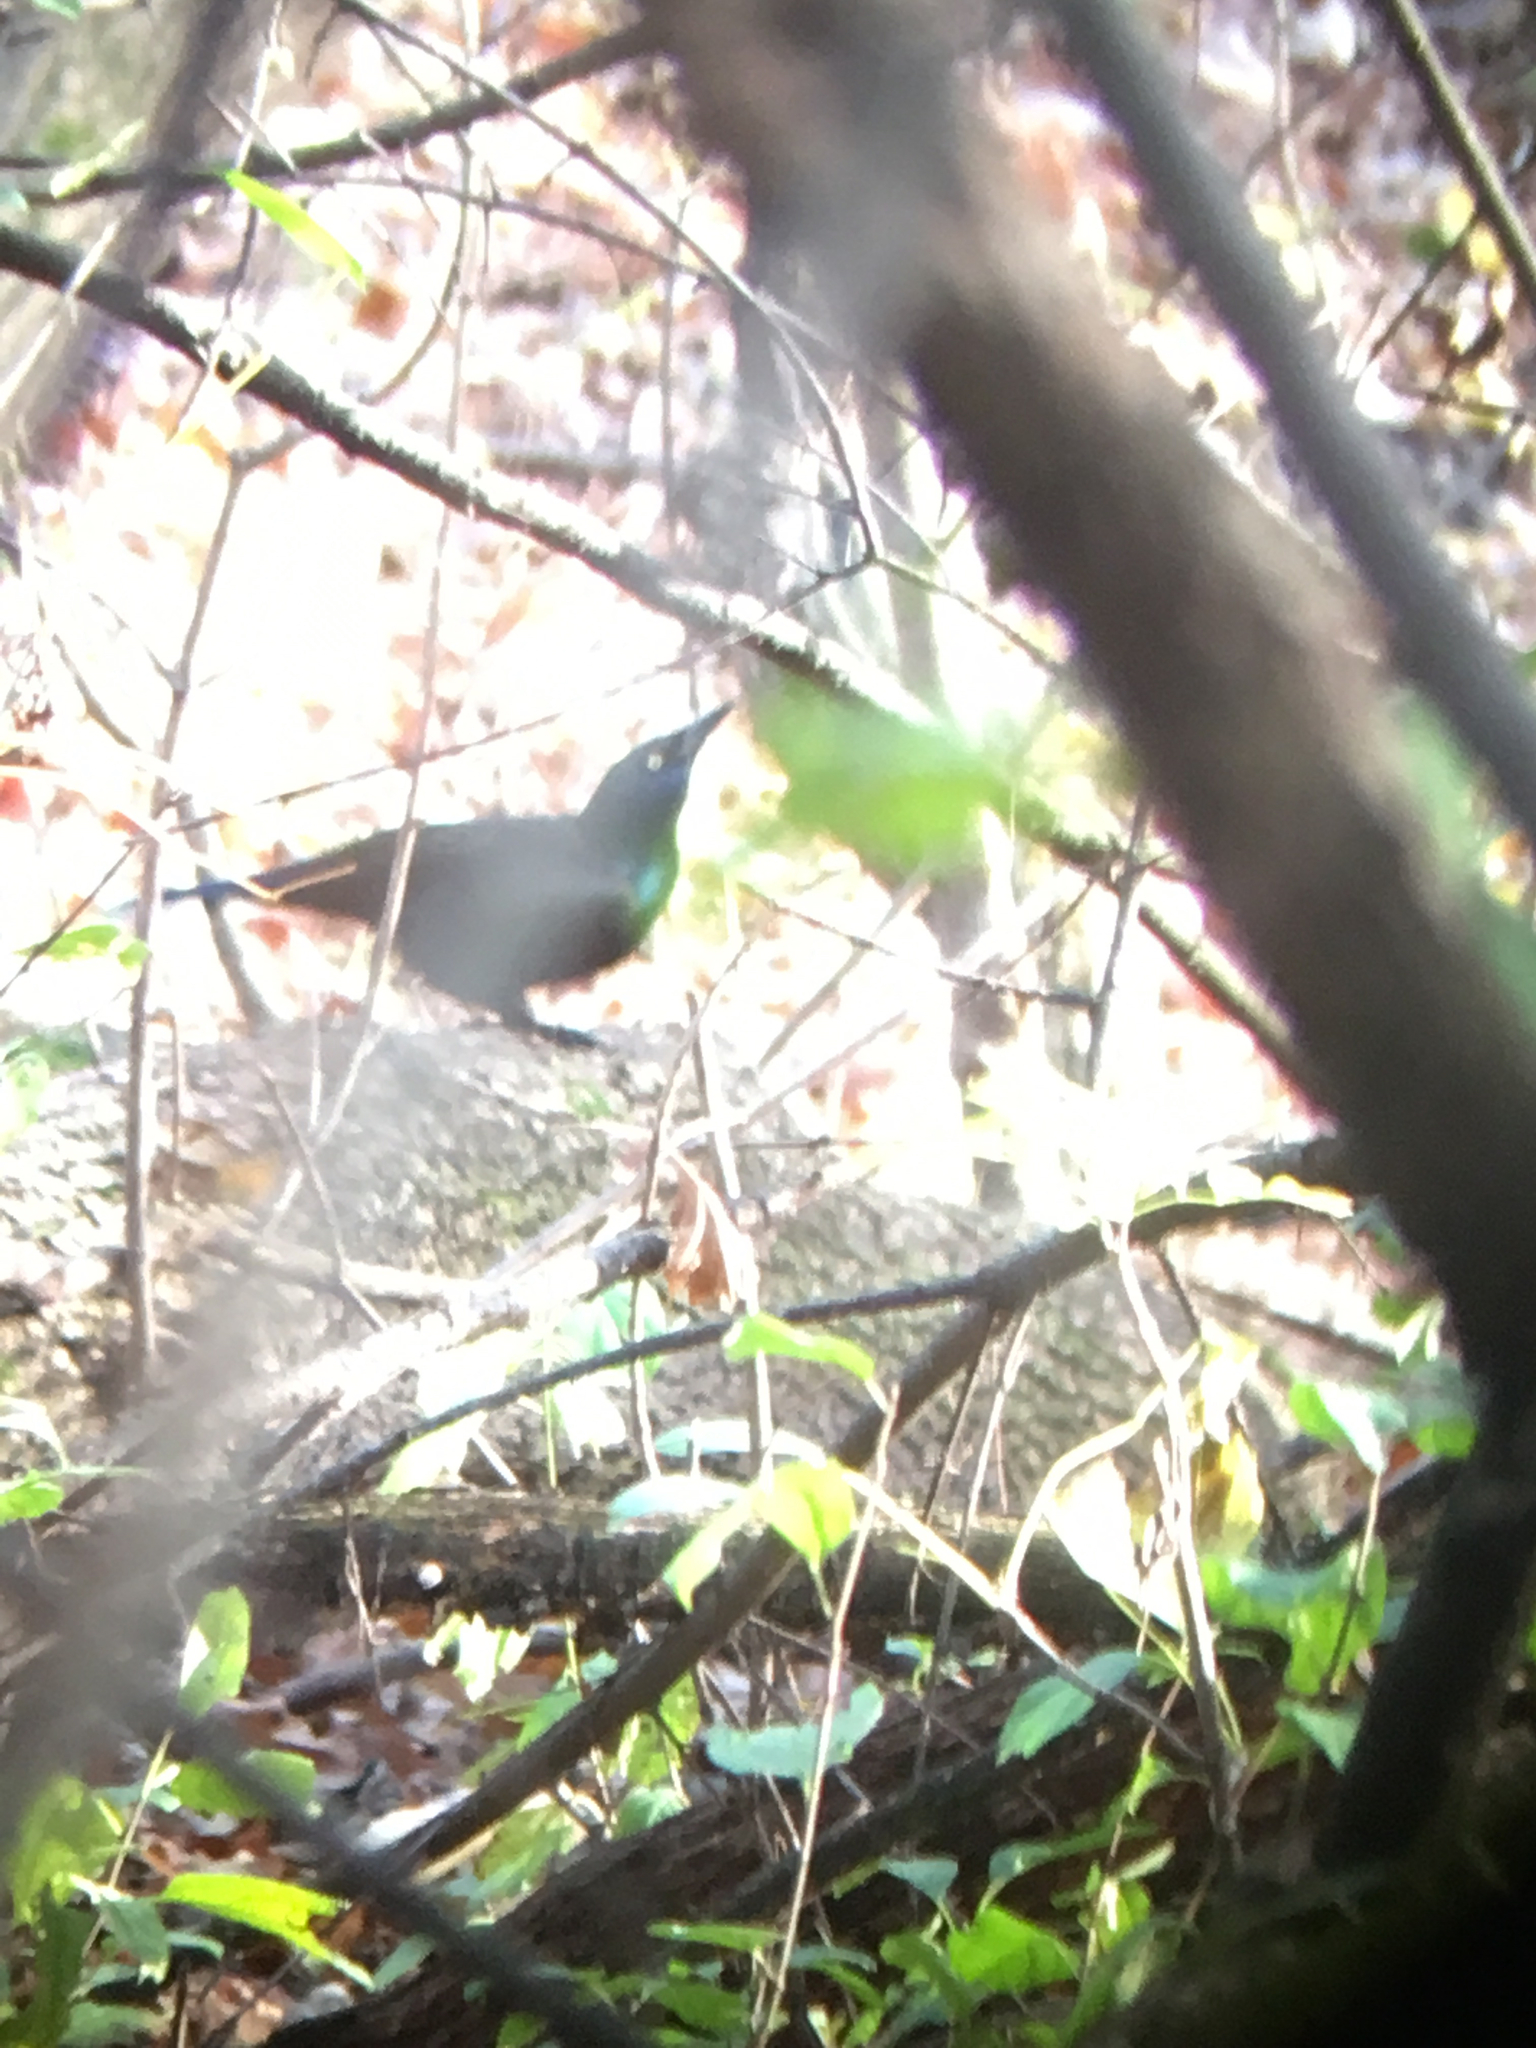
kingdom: Animalia
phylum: Chordata
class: Aves
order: Passeriformes
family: Icteridae
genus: Quiscalus
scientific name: Quiscalus quiscula
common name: Common grackle
